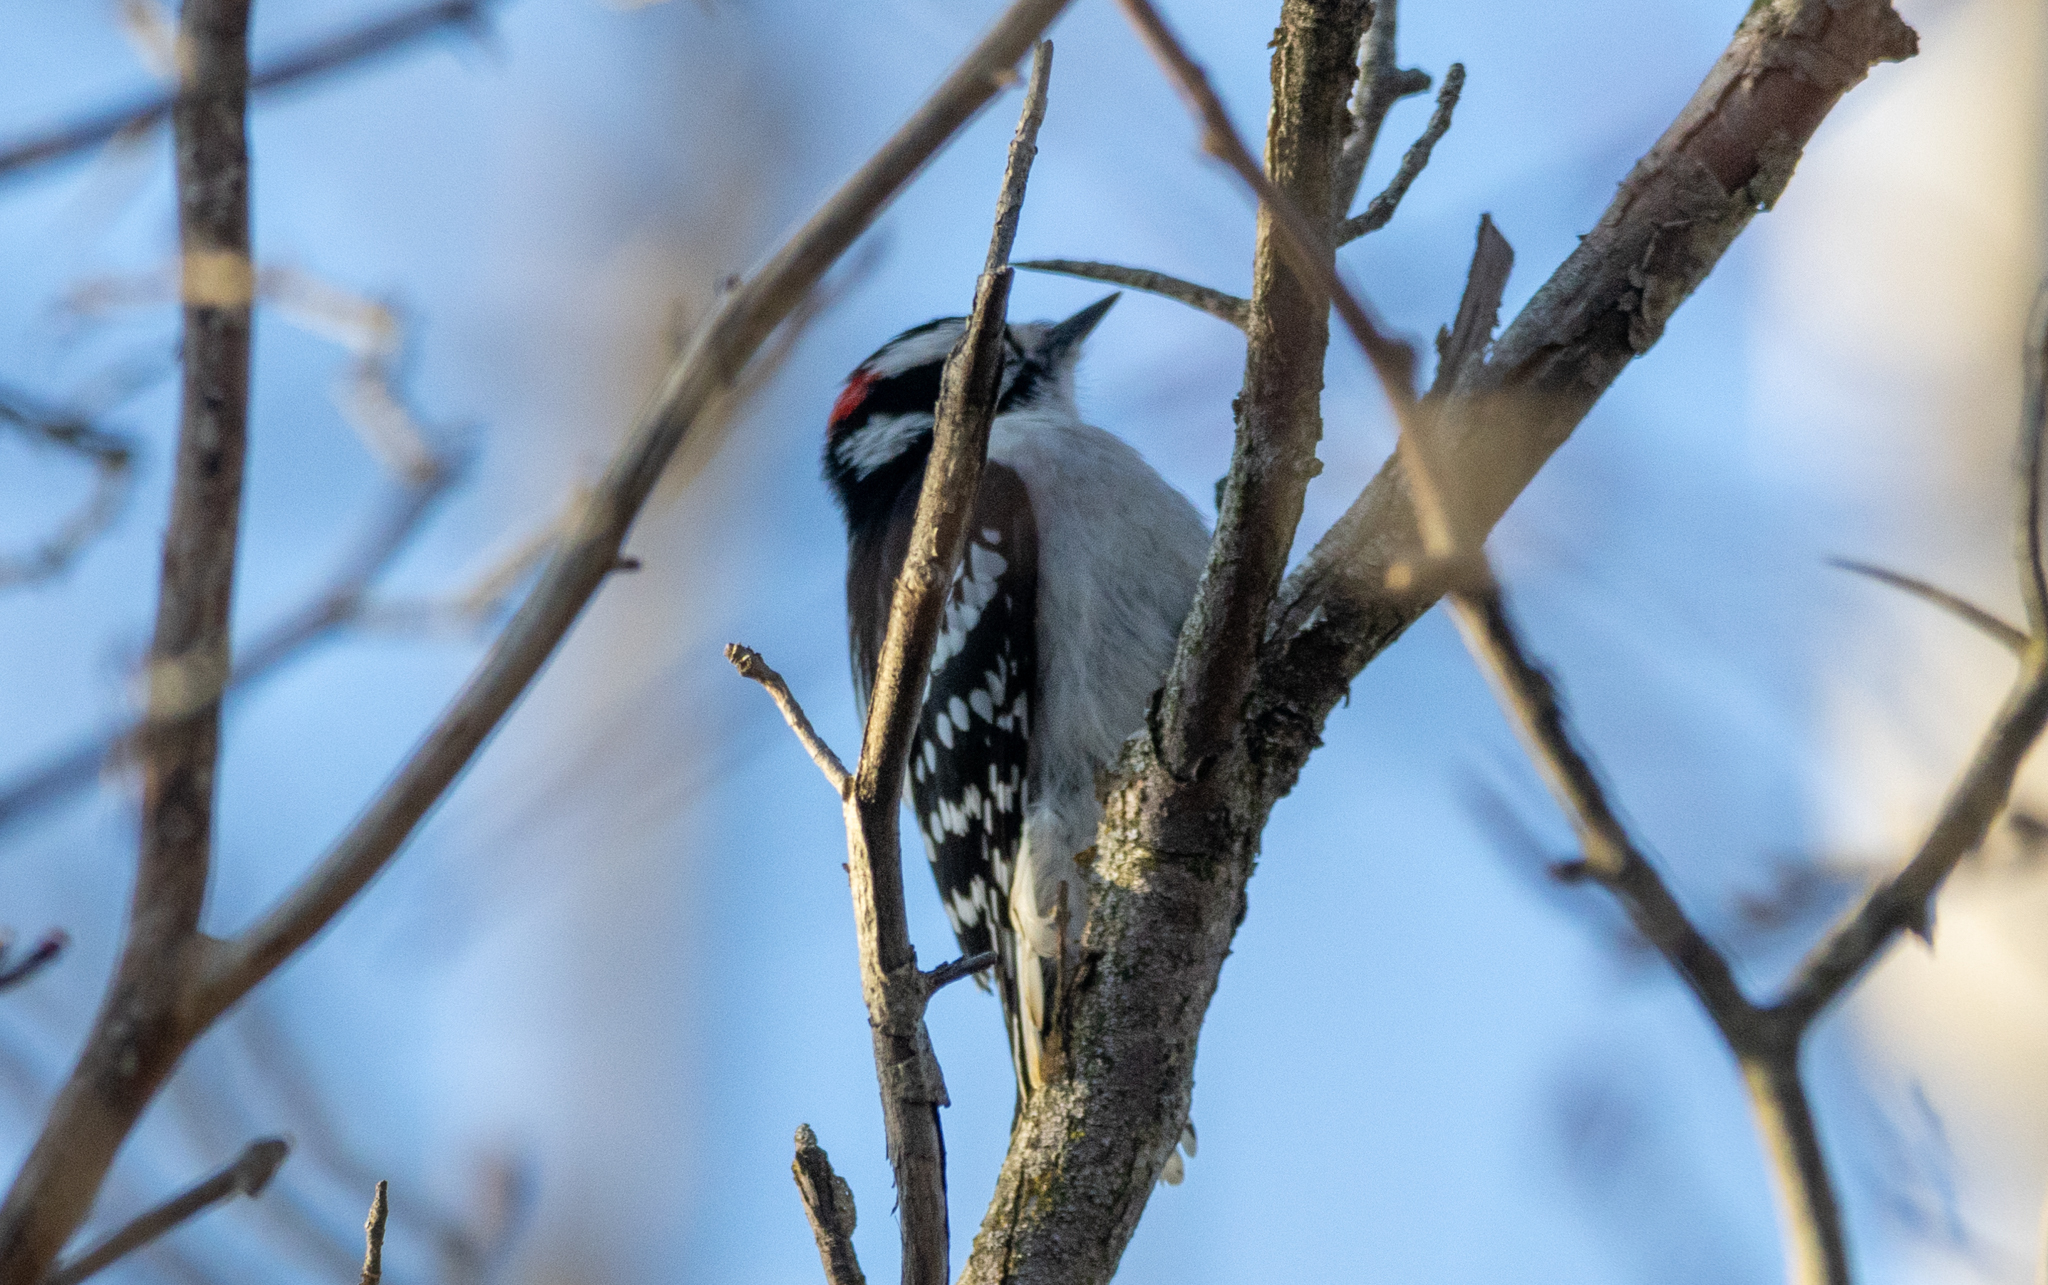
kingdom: Animalia
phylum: Chordata
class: Aves
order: Piciformes
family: Picidae
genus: Dryobates
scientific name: Dryobates pubescens
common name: Downy woodpecker
